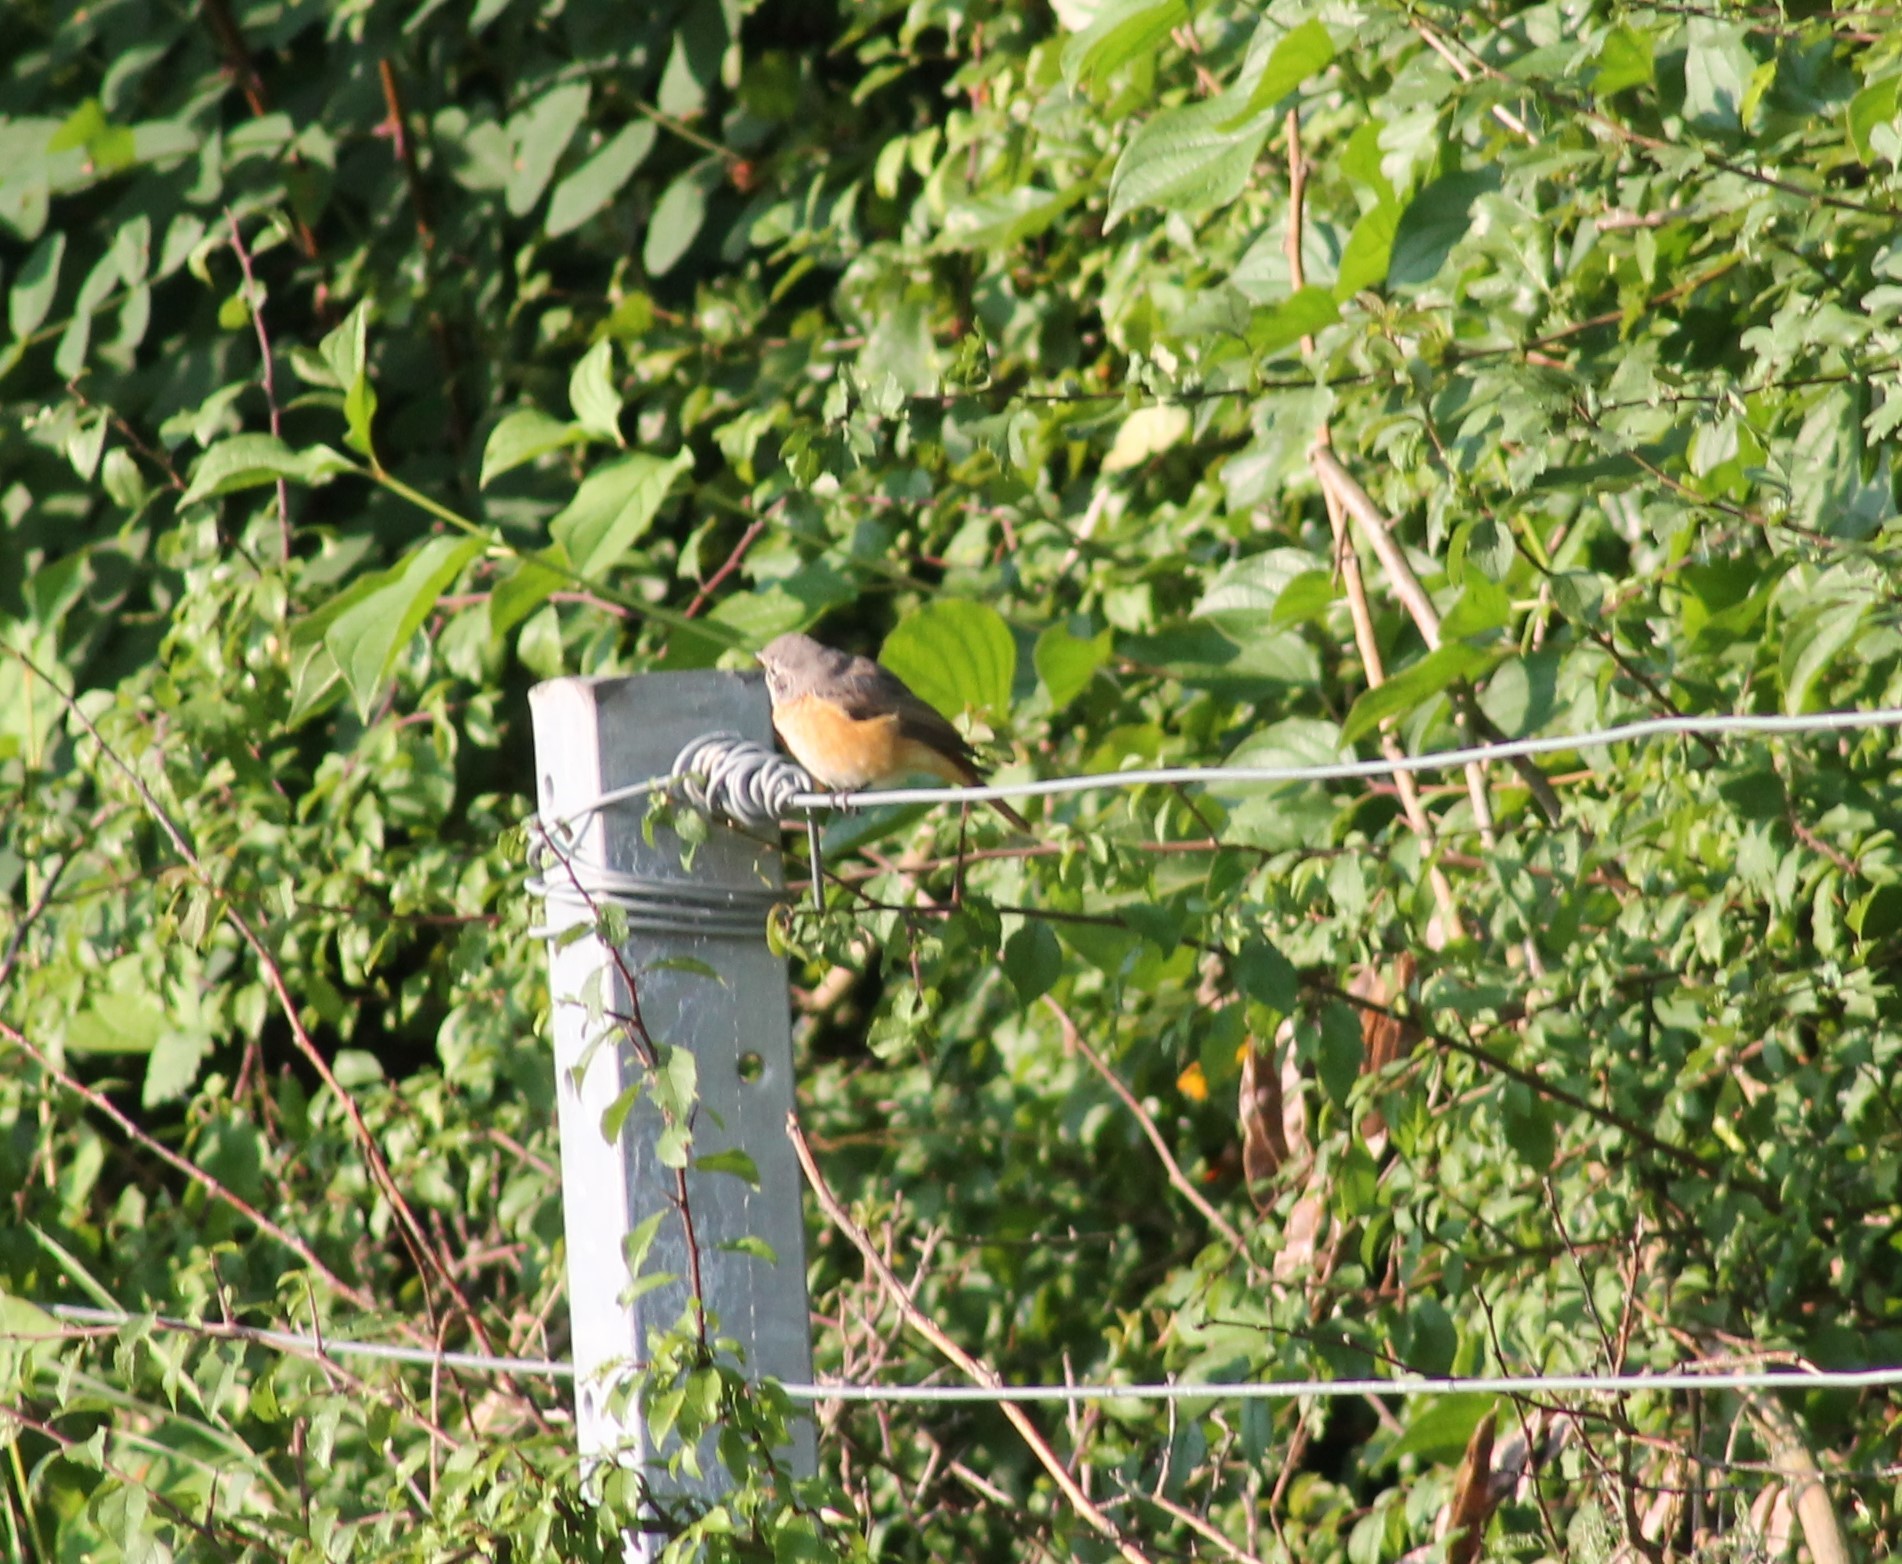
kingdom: Animalia
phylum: Chordata
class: Aves
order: Passeriformes
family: Muscicapidae
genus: Phoenicurus
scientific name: Phoenicurus phoenicurus
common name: Common redstart
